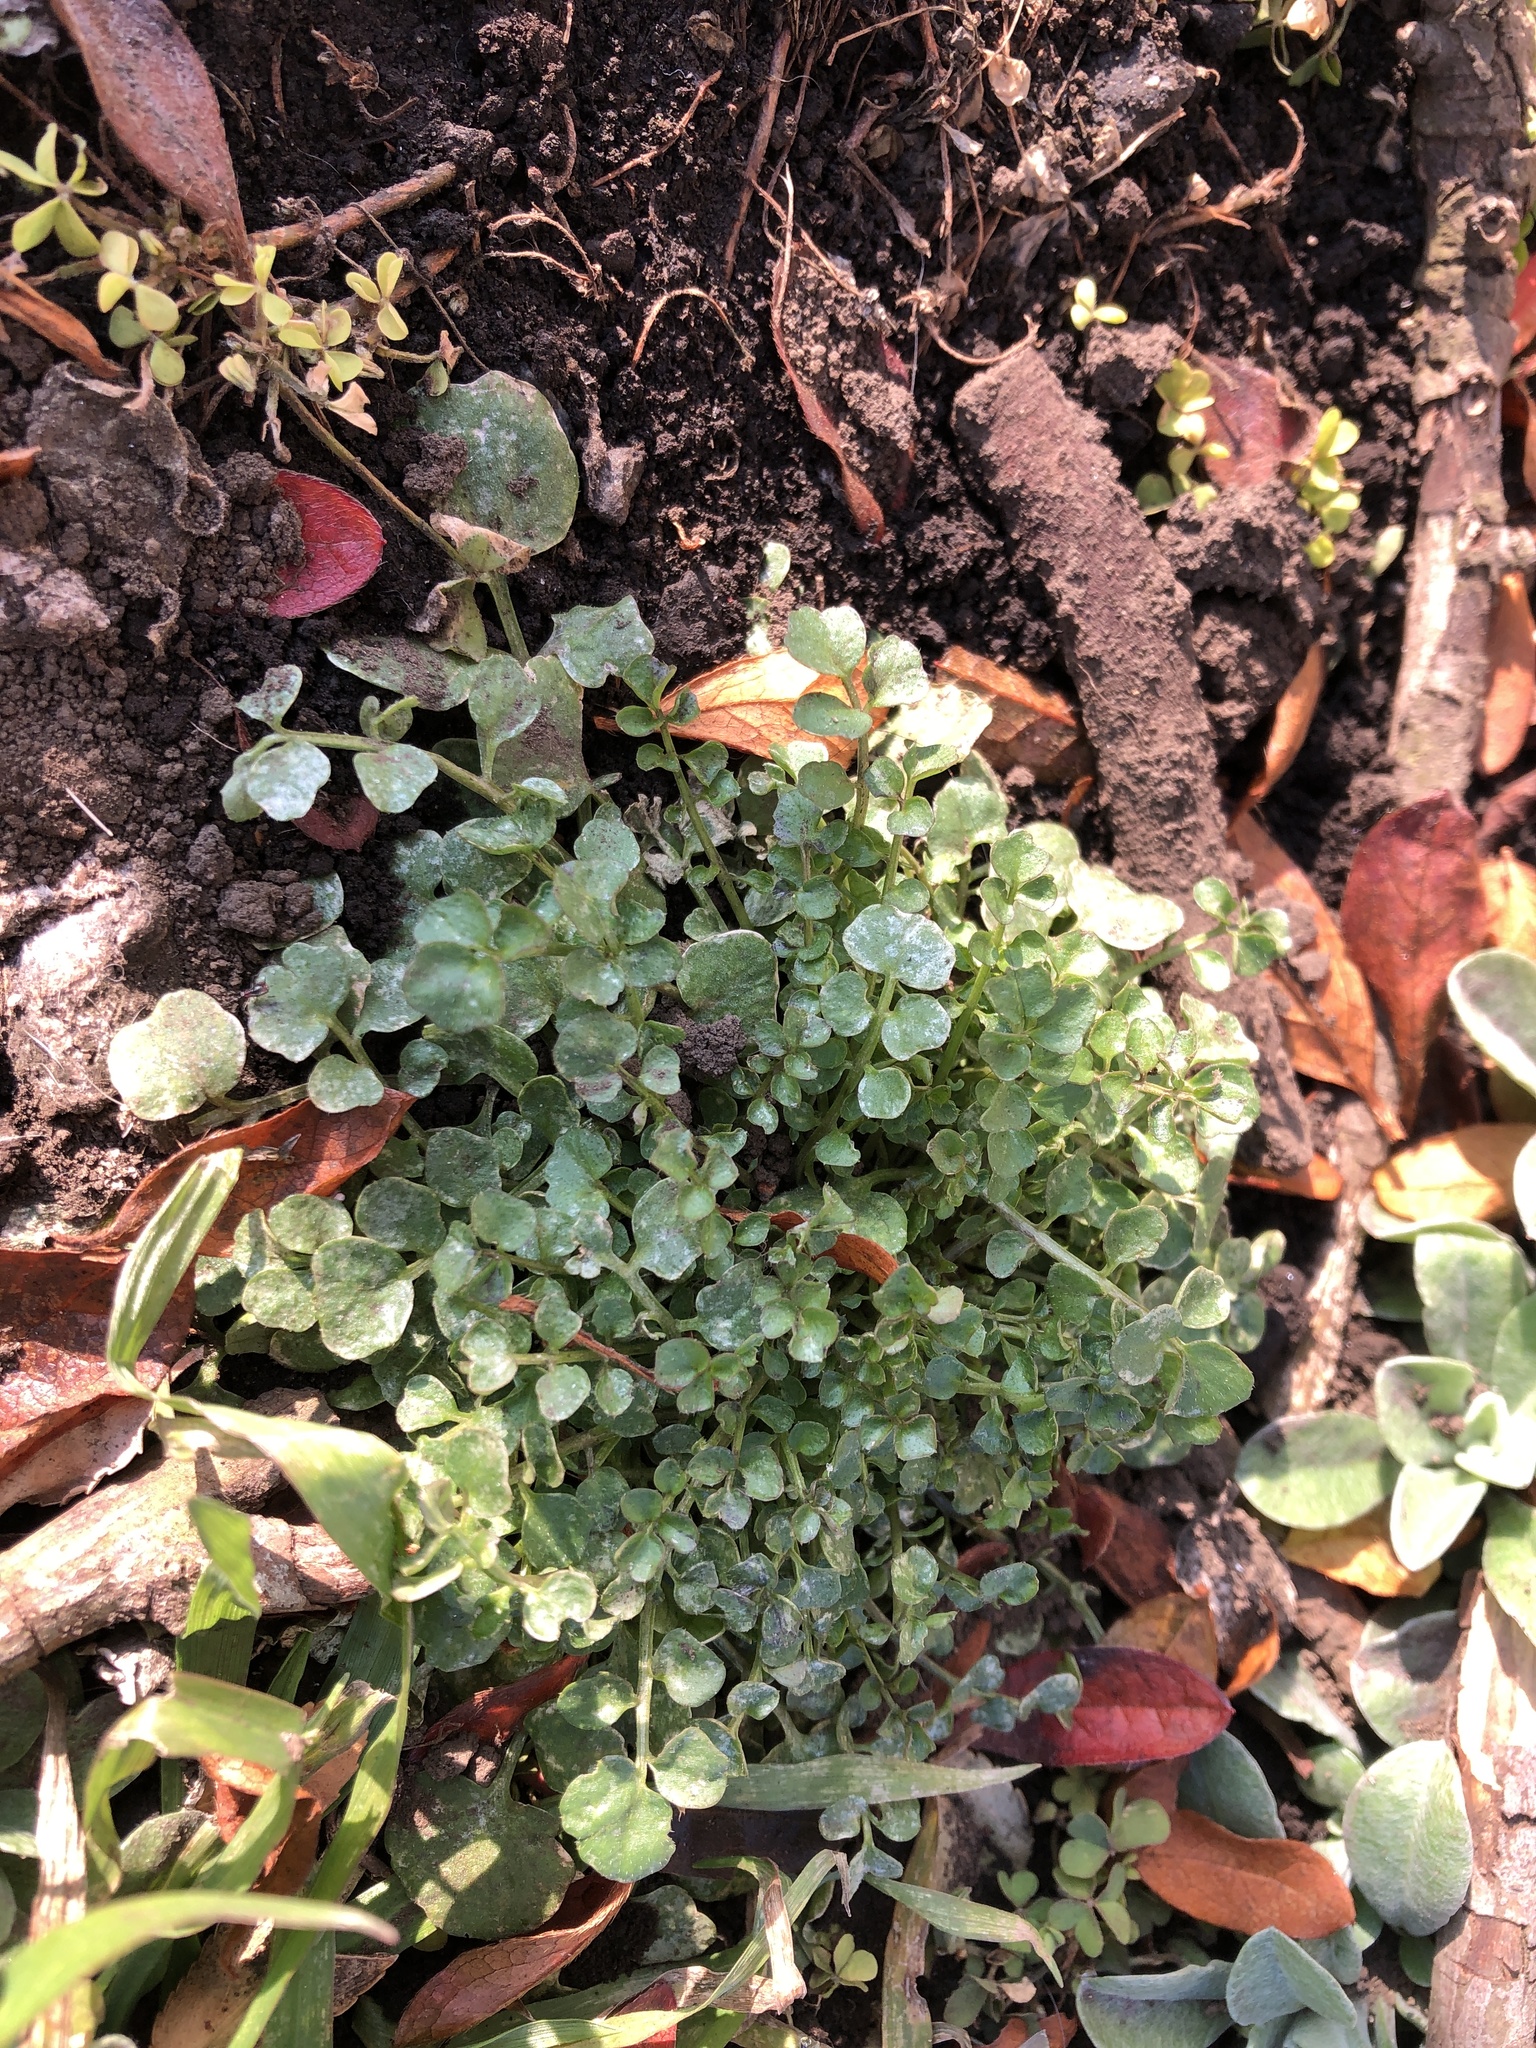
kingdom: Plantae
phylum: Tracheophyta
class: Magnoliopsida
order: Brassicales
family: Brassicaceae
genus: Cardamine
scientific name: Cardamine hirsuta
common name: Hairy bittercress
